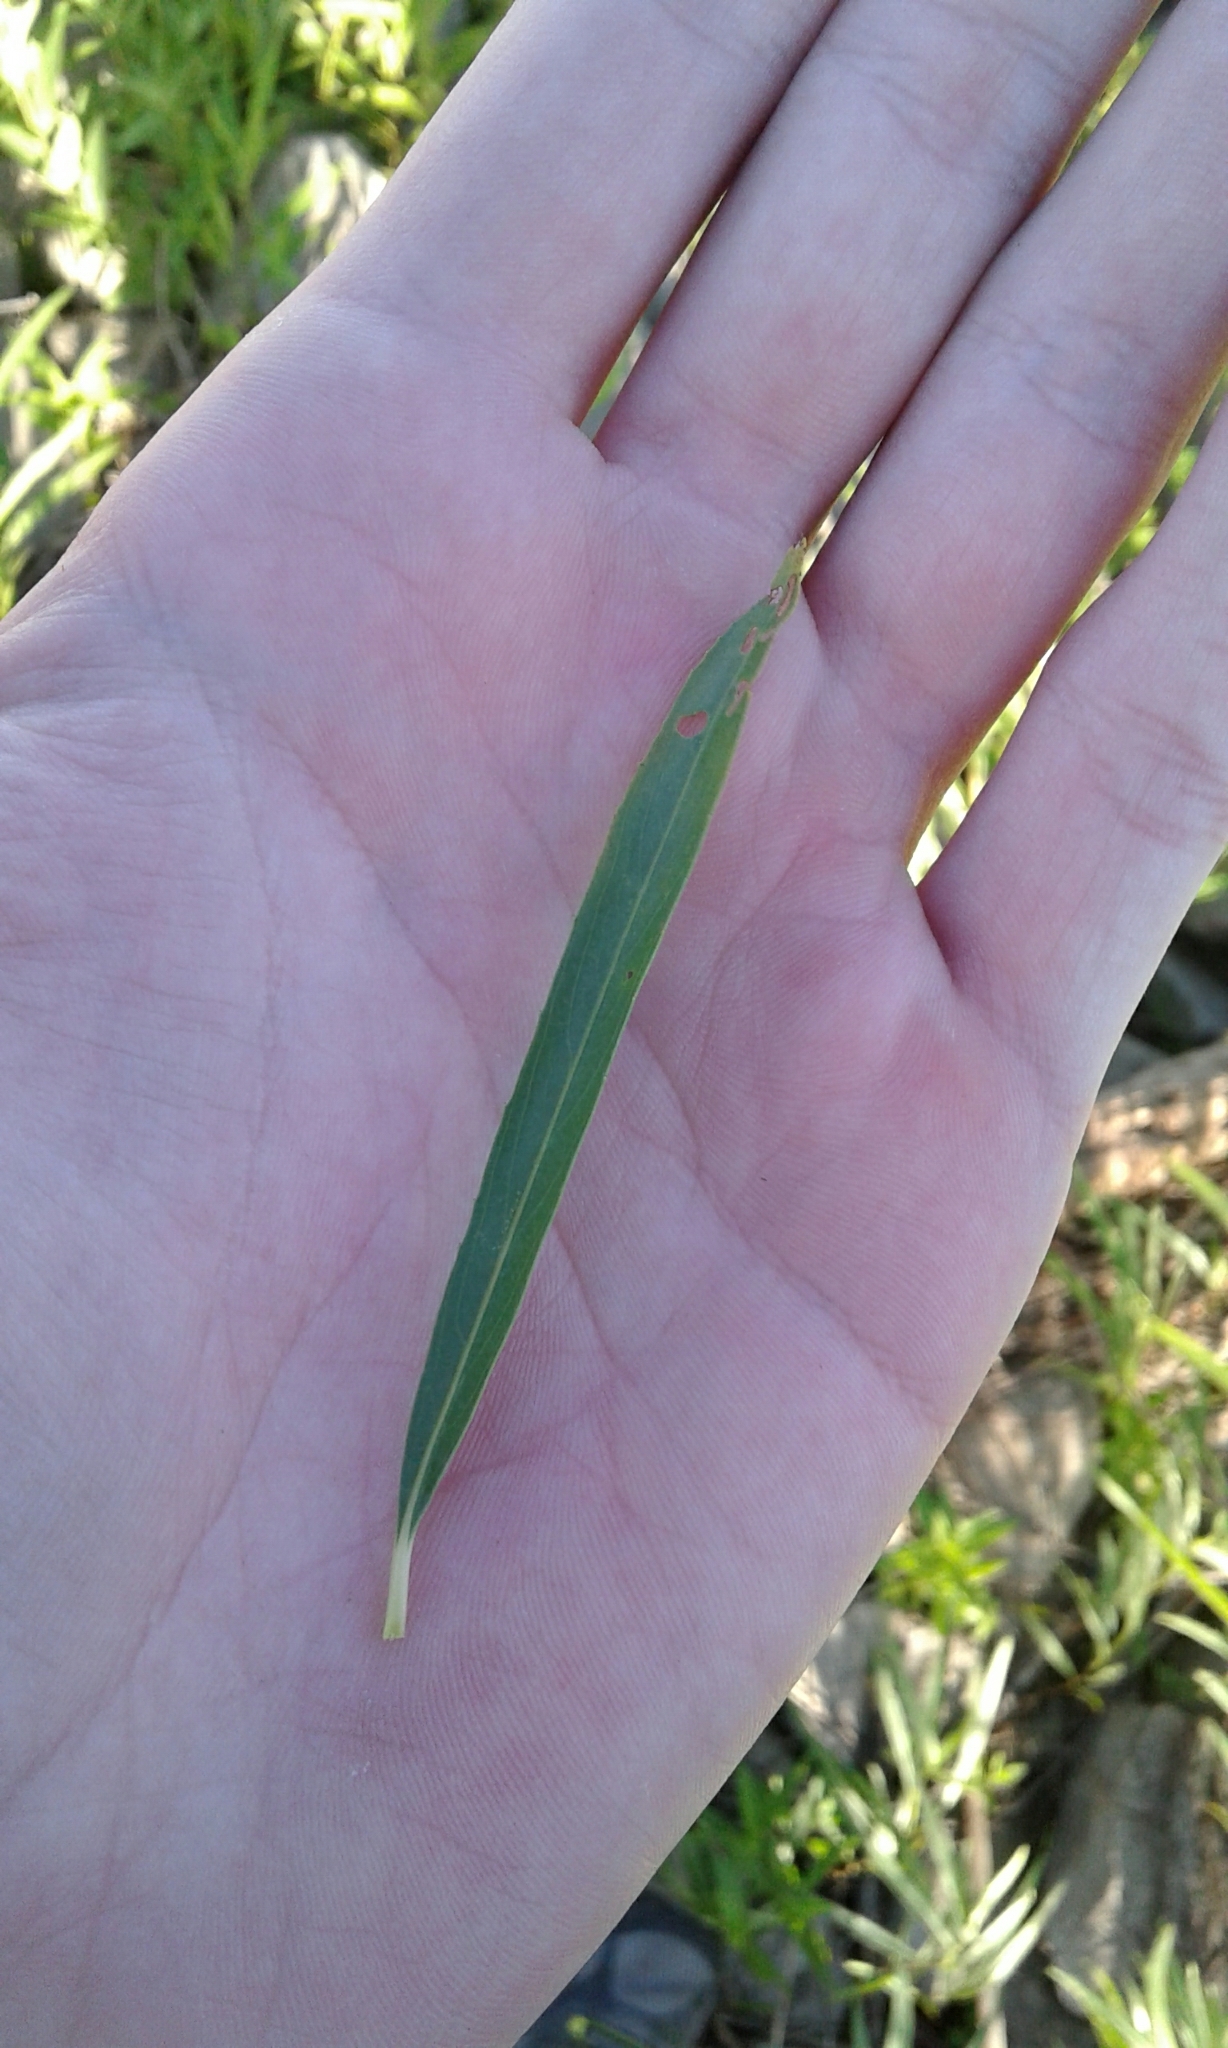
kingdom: Plantae
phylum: Tracheophyta
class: Magnoliopsida
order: Malpighiales
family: Salicaceae
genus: Salix
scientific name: Salix interior
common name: Sandbar willow
